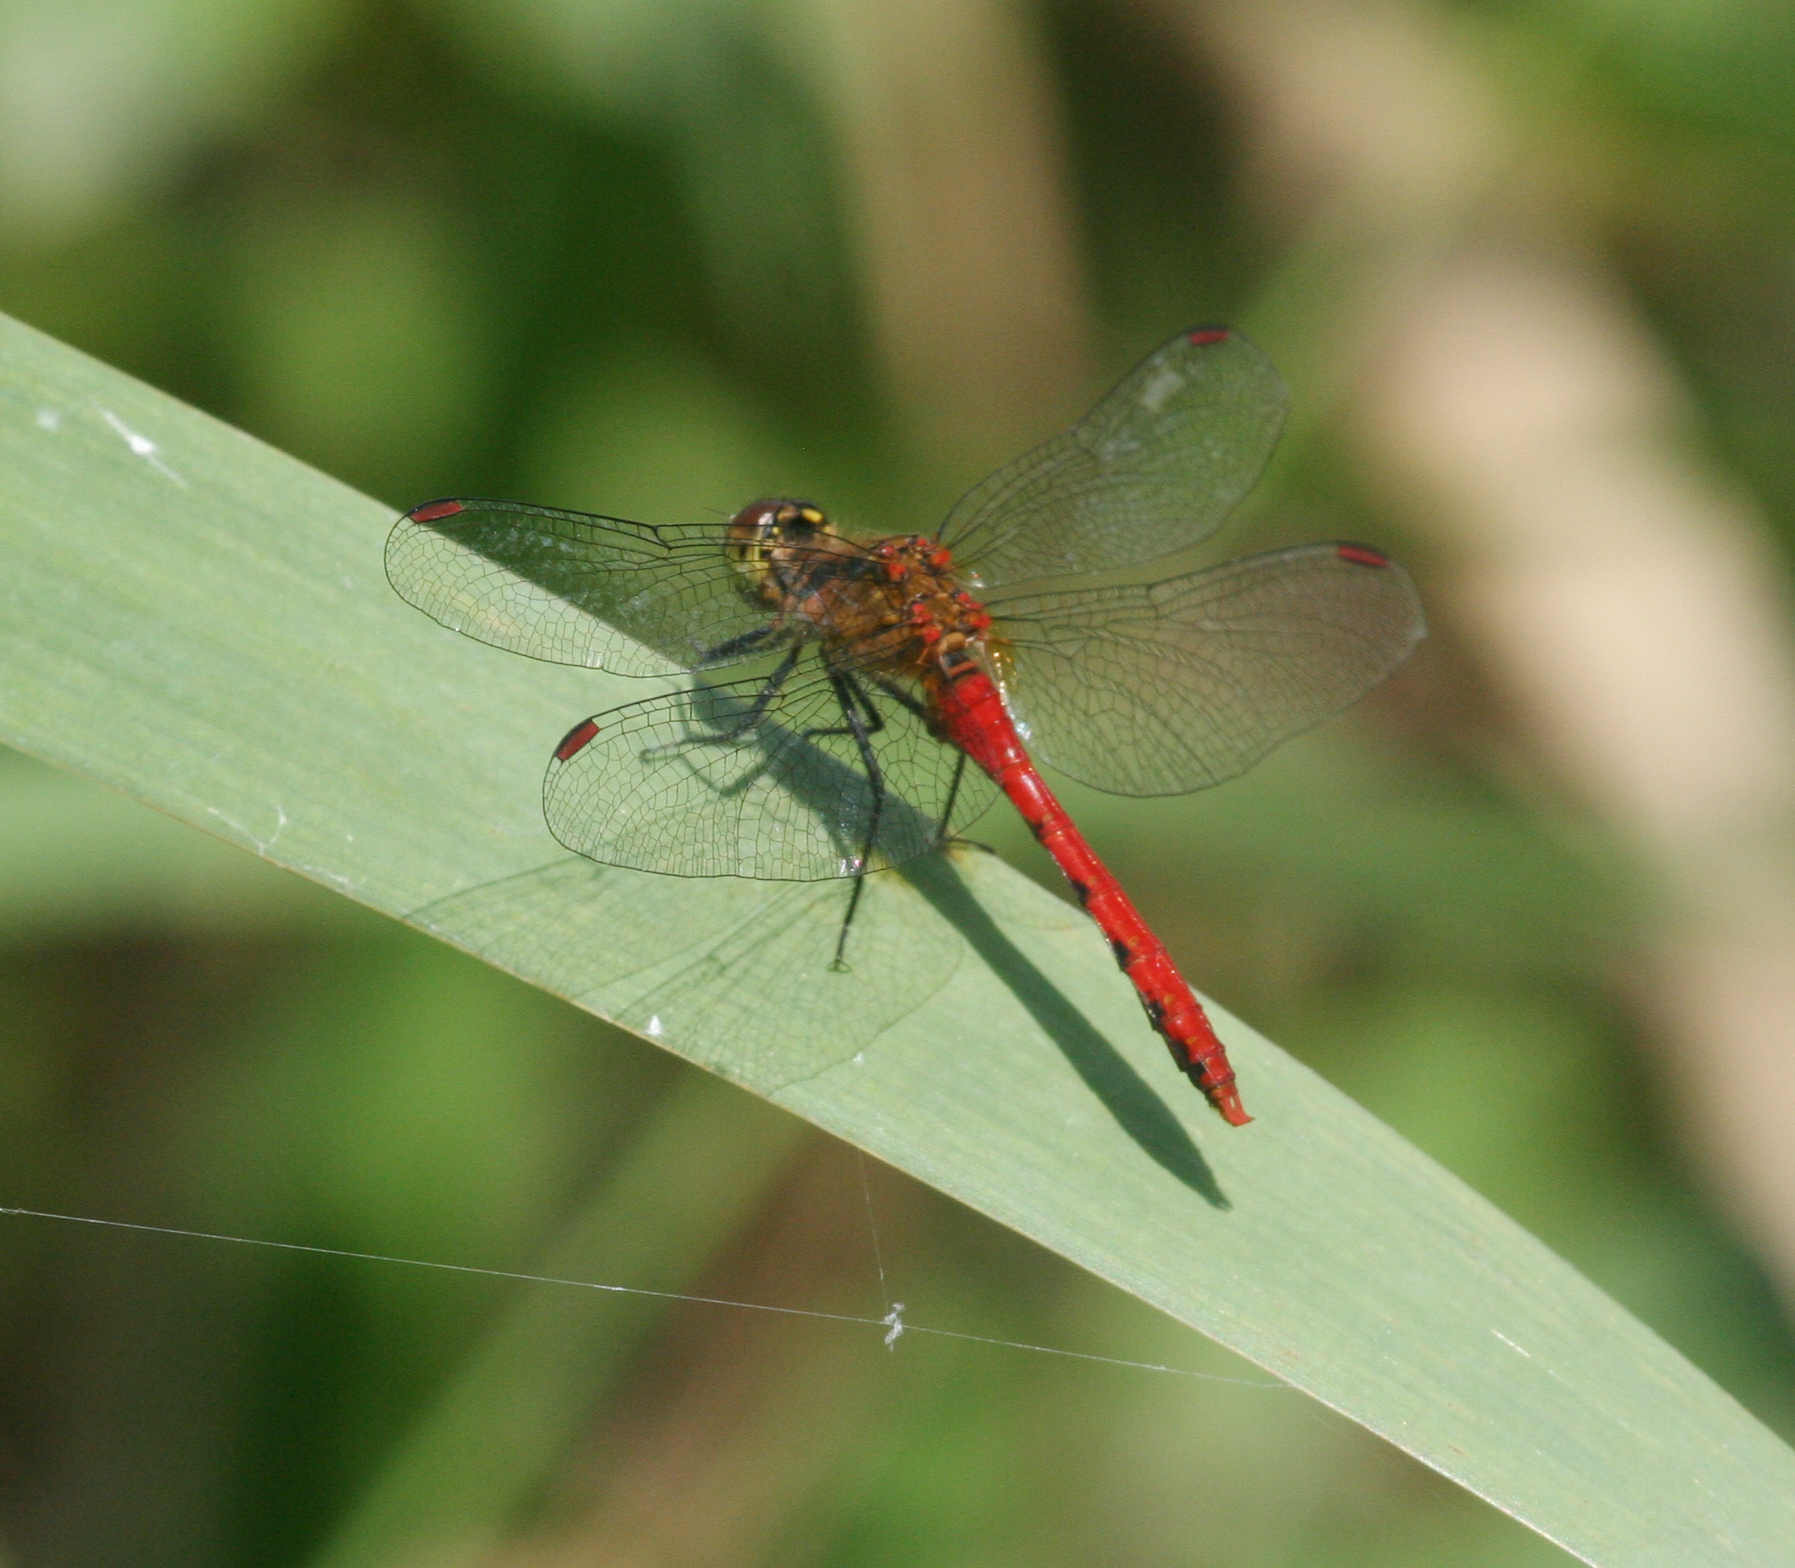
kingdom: Animalia
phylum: Arthropoda
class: Insecta
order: Odonata
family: Libellulidae
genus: Sympetrum
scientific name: Sympetrum eroticum
